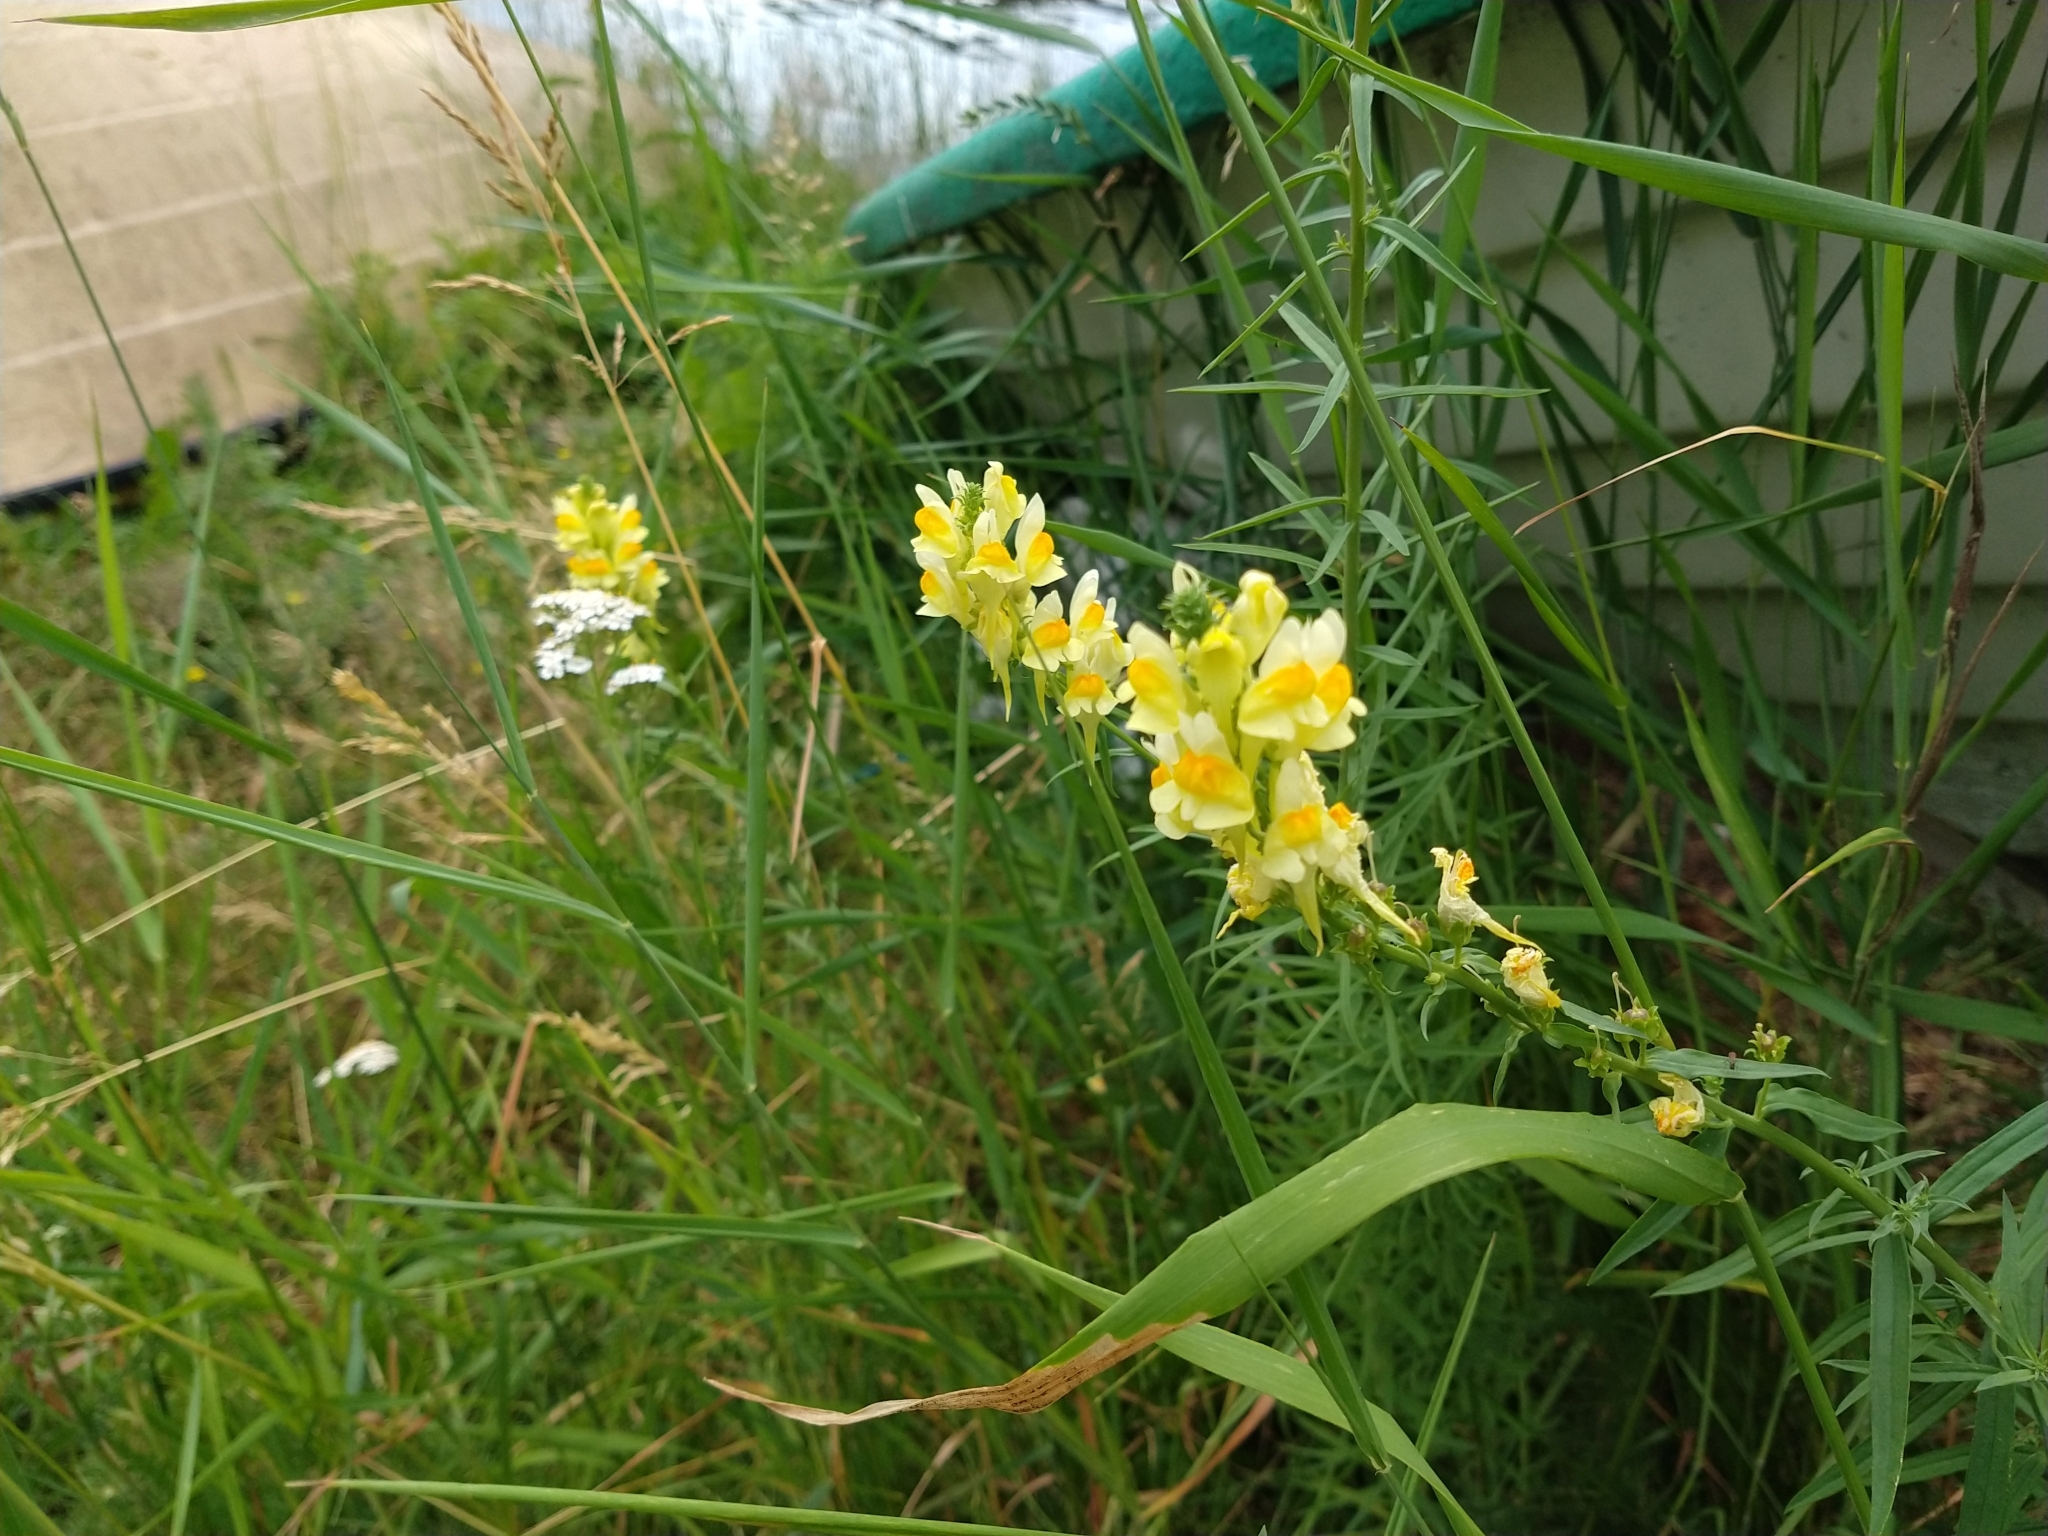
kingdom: Plantae
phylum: Tracheophyta
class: Magnoliopsida
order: Lamiales
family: Plantaginaceae
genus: Linaria
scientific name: Linaria vulgaris
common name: Butter and eggs
